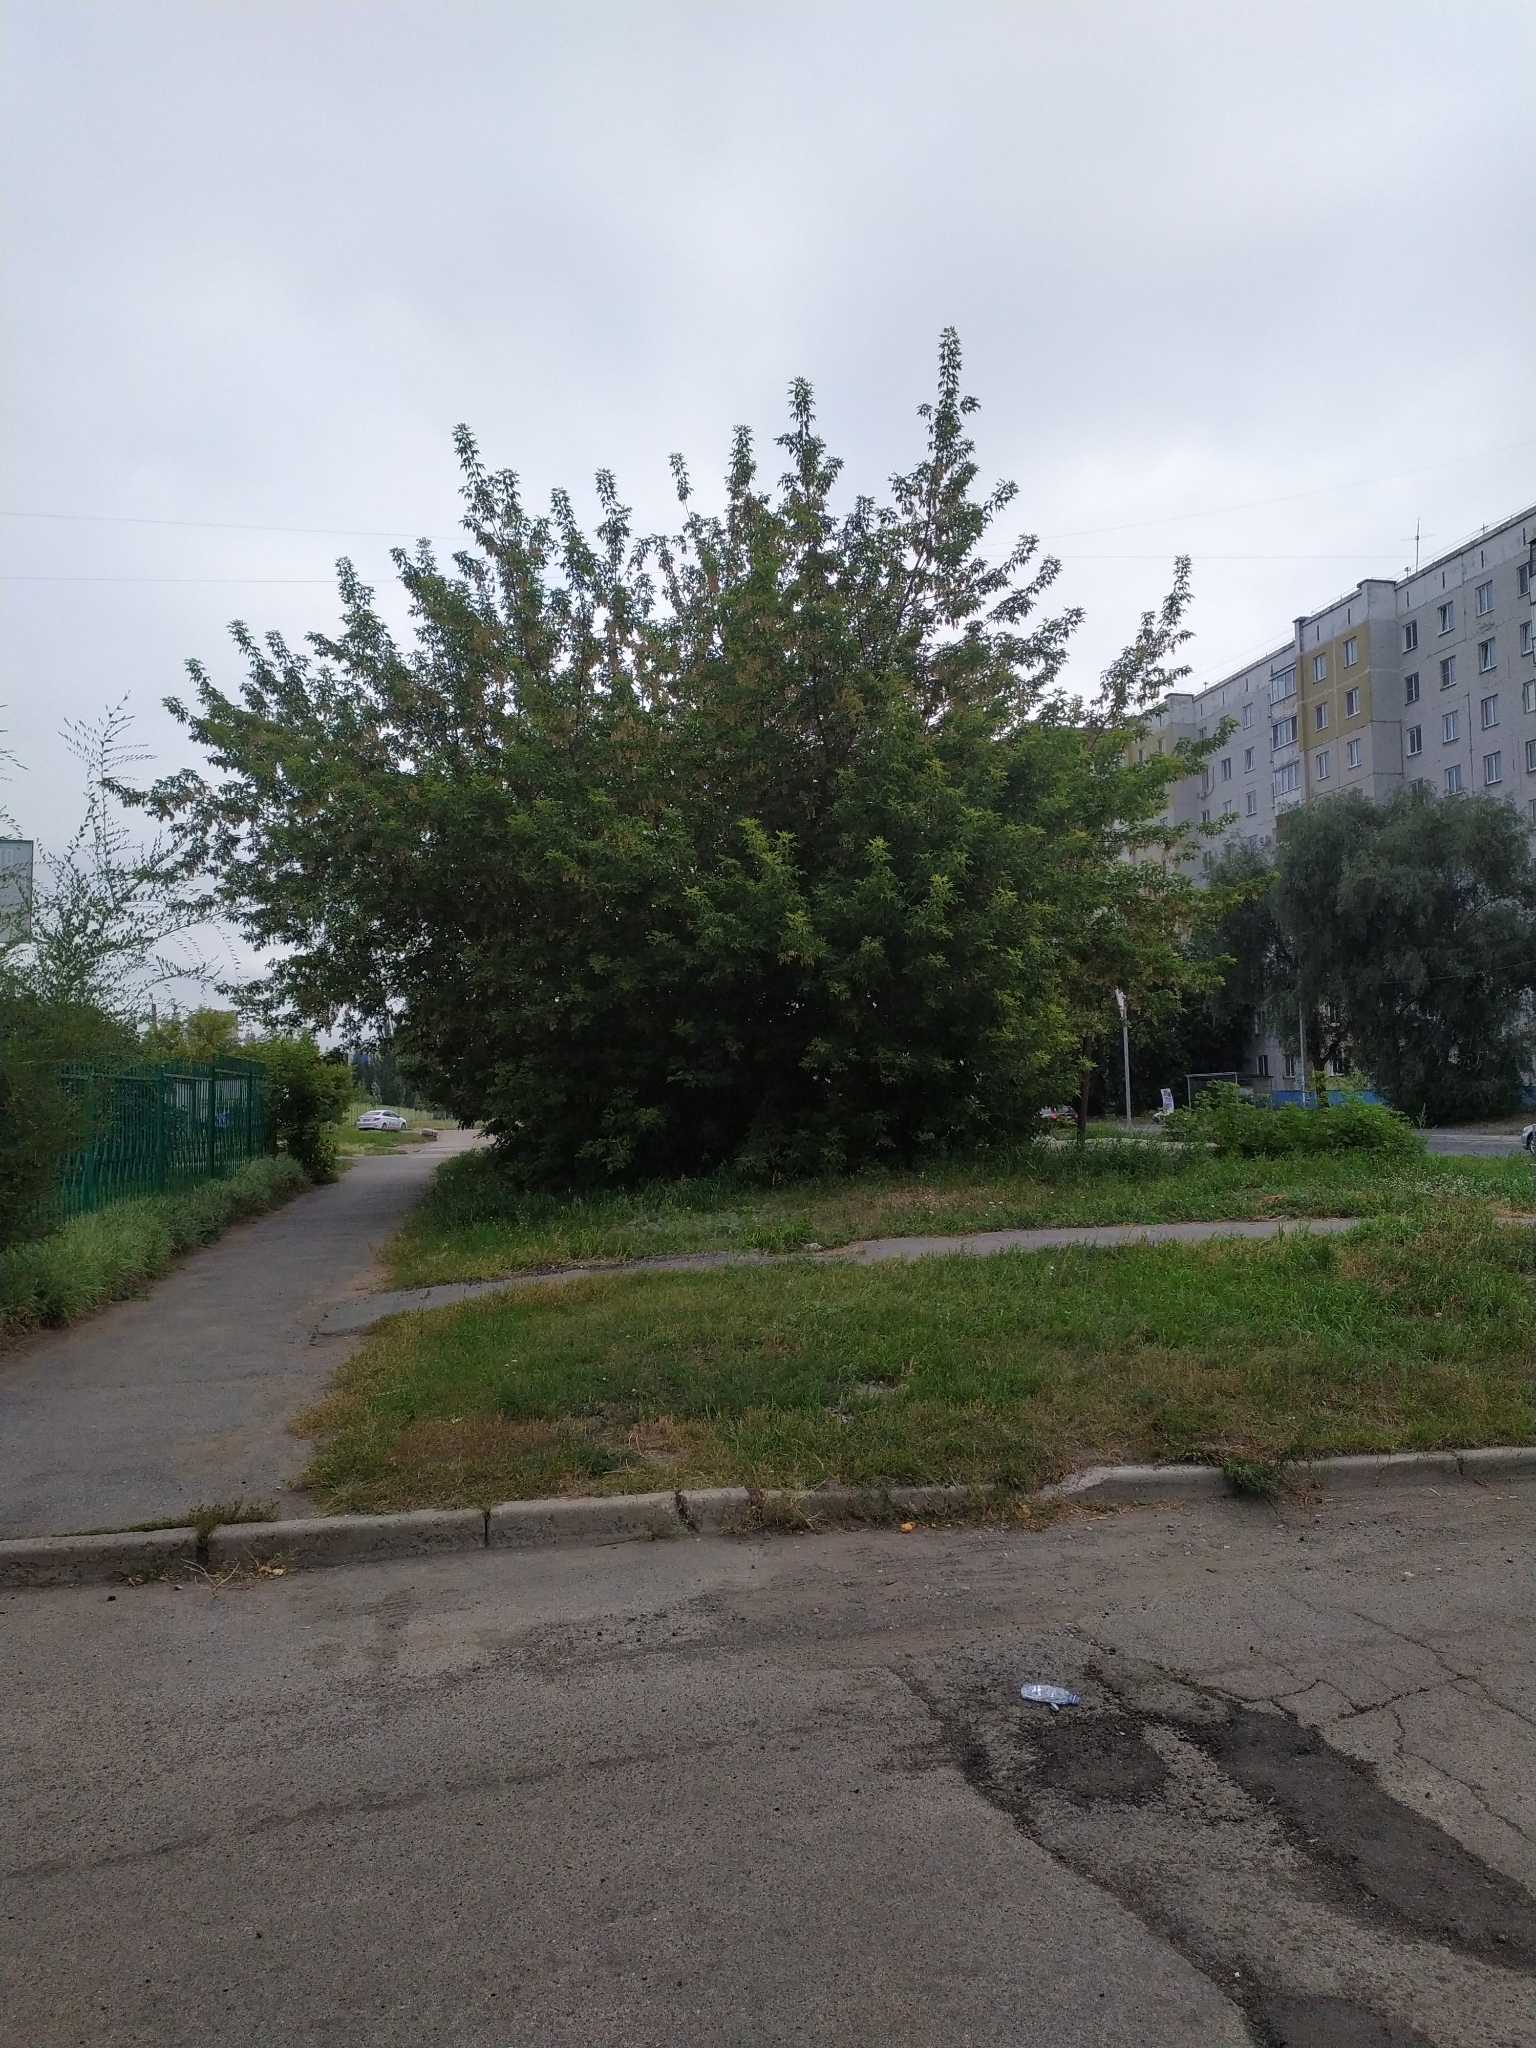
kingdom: Plantae
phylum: Tracheophyta
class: Magnoliopsida
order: Sapindales
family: Sapindaceae
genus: Acer
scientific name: Acer negundo
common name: Ashleaf maple
